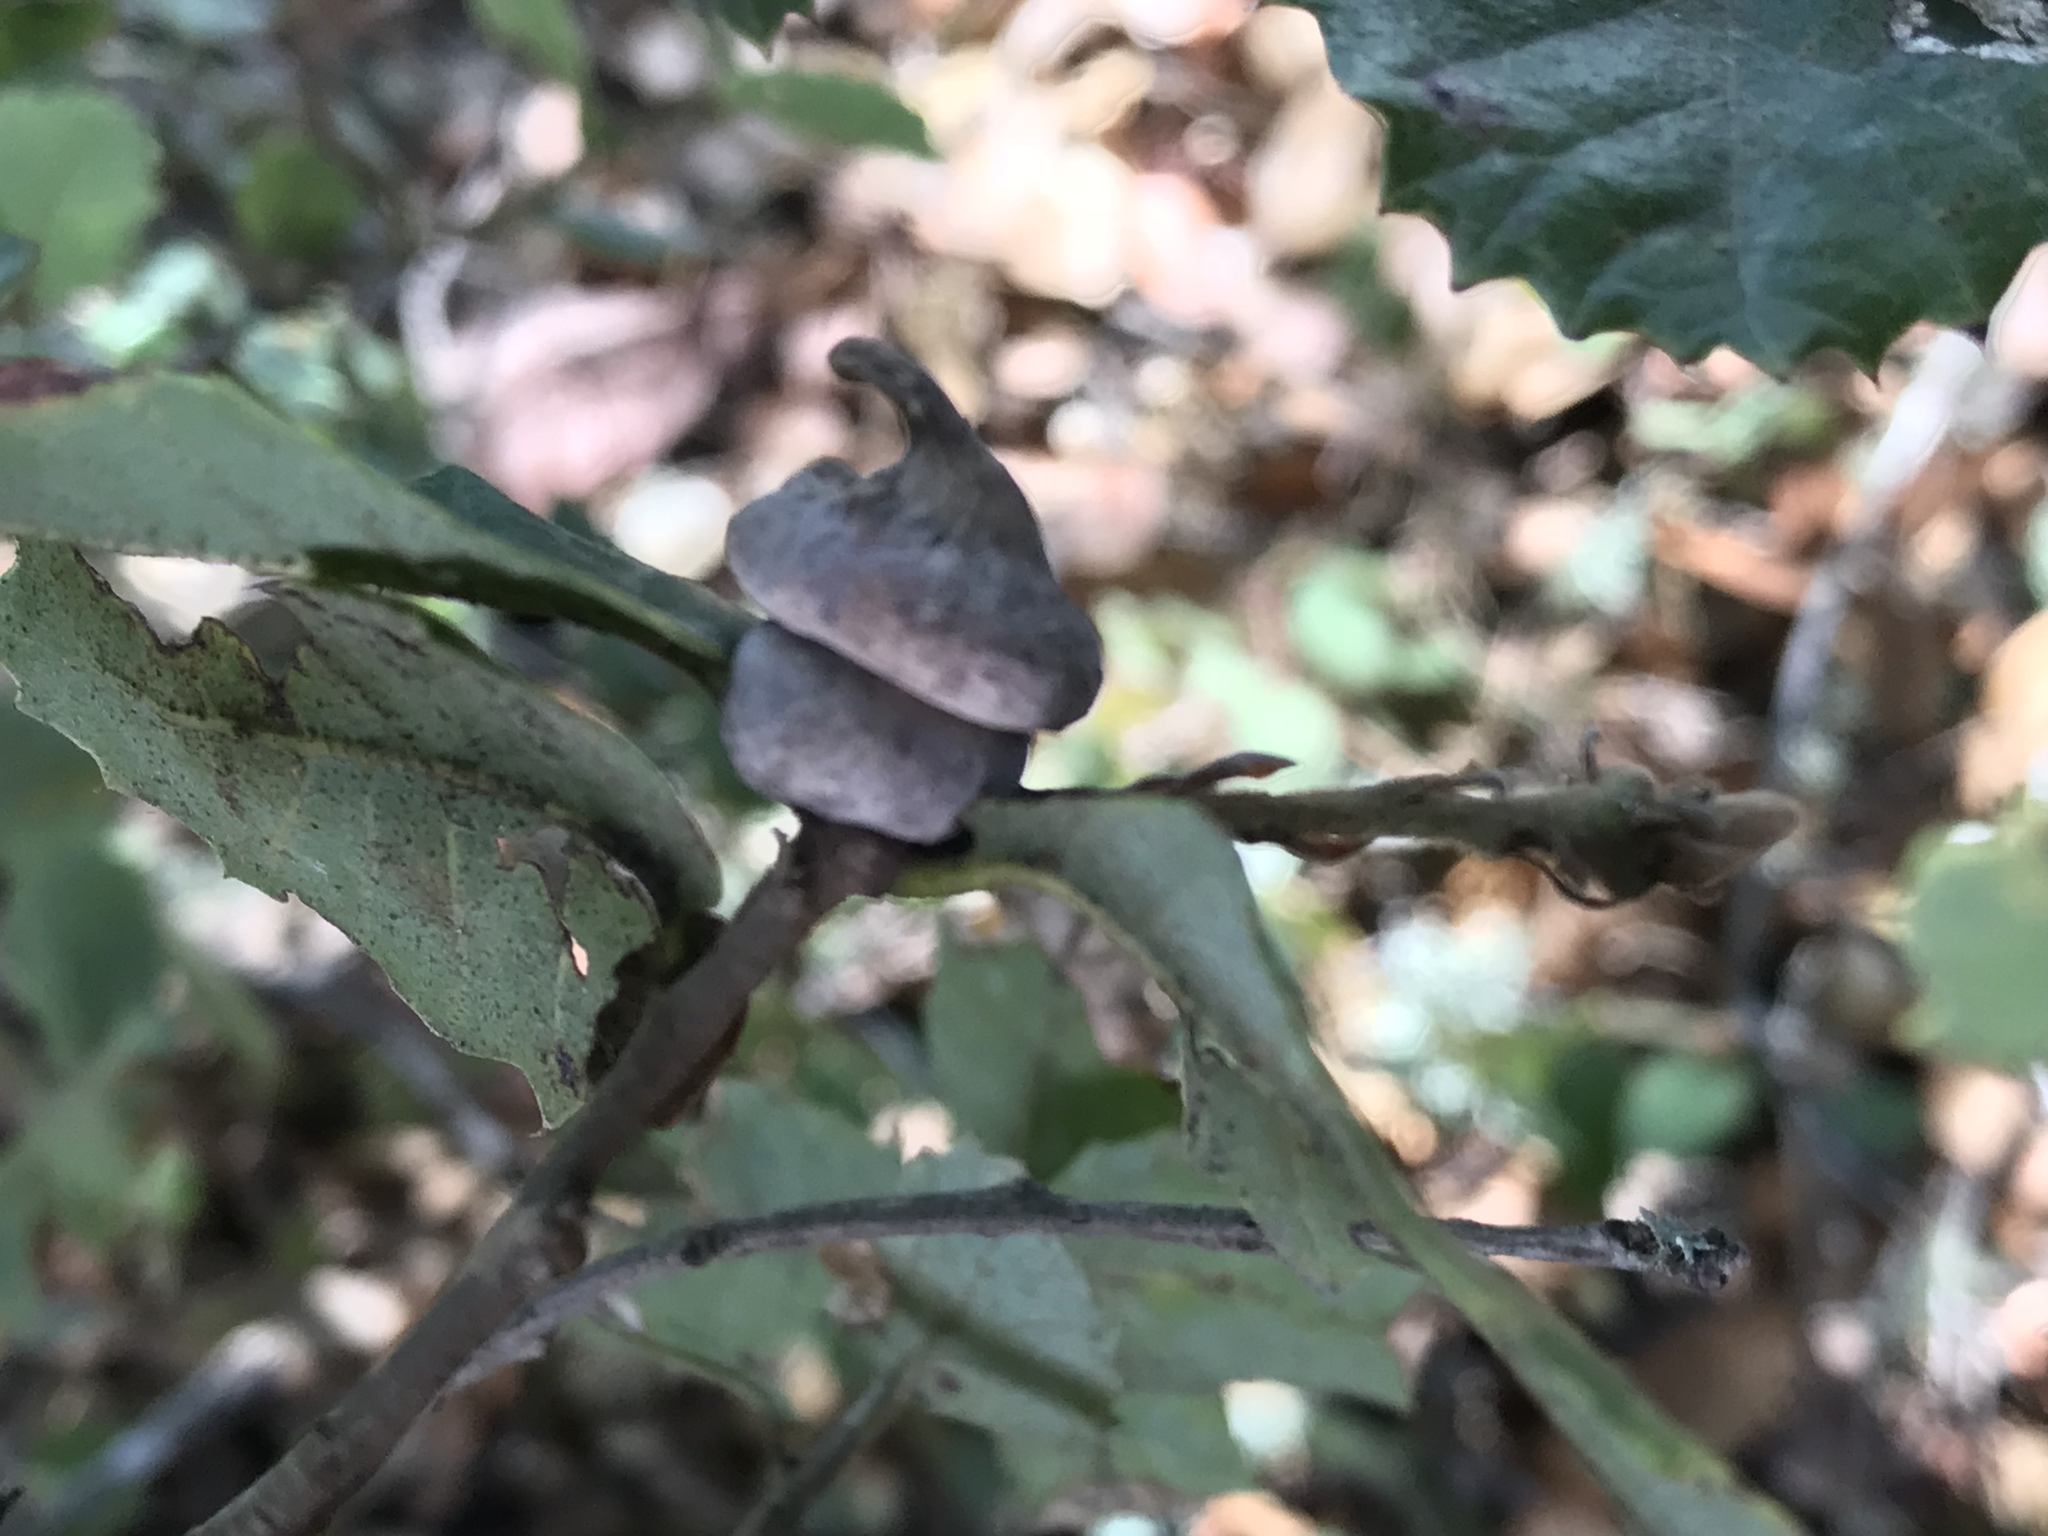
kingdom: Animalia
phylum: Arthropoda
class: Insecta
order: Hymenoptera
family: Cynipidae
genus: Heteroecus
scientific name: Heteroecus
